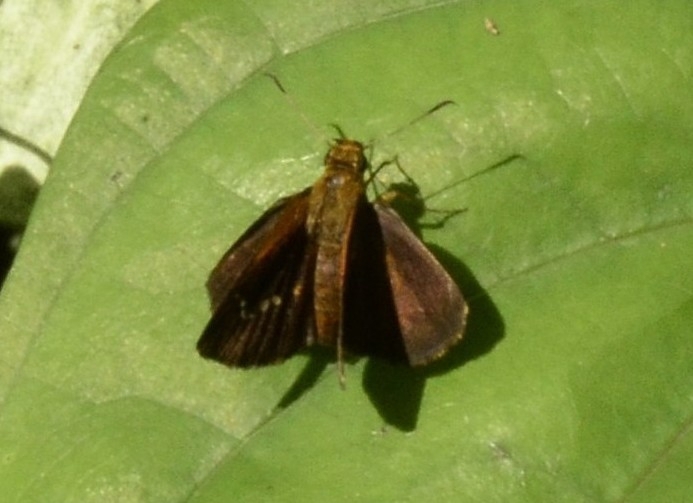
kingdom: Animalia
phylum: Arthropoda
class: Insecta
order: Lepidoptera
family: Hesperiidae
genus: Iambrix
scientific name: Iambrix salsala
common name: Chestnut bob
